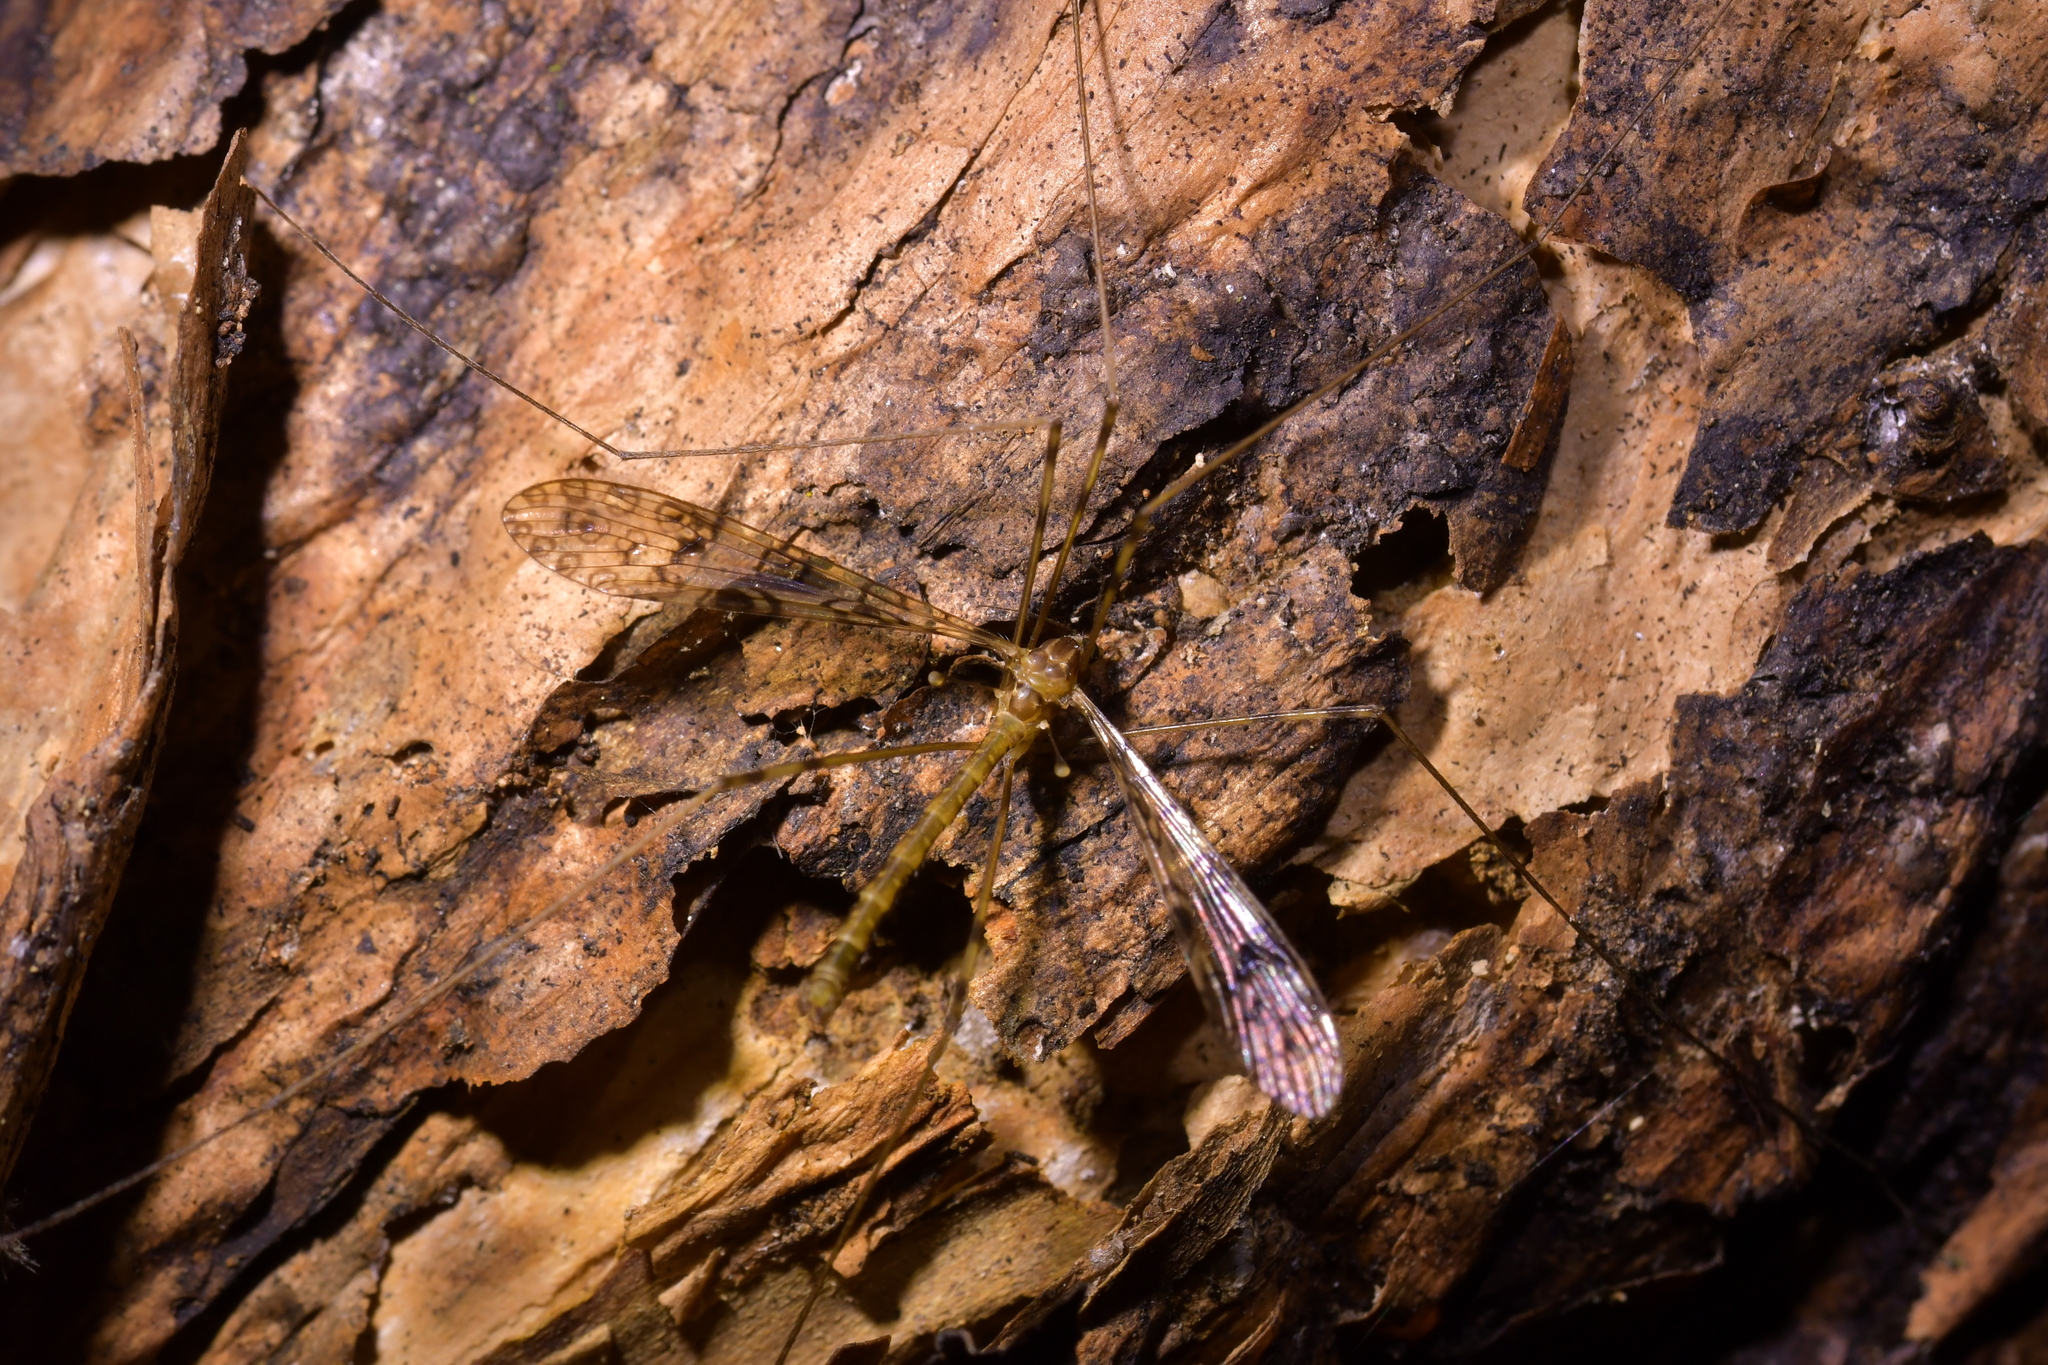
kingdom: Animalia
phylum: Arthropoda
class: Insecta
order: Diptera
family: Limoniidae
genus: Austrolimnophila
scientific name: Austrolimnophila argus
